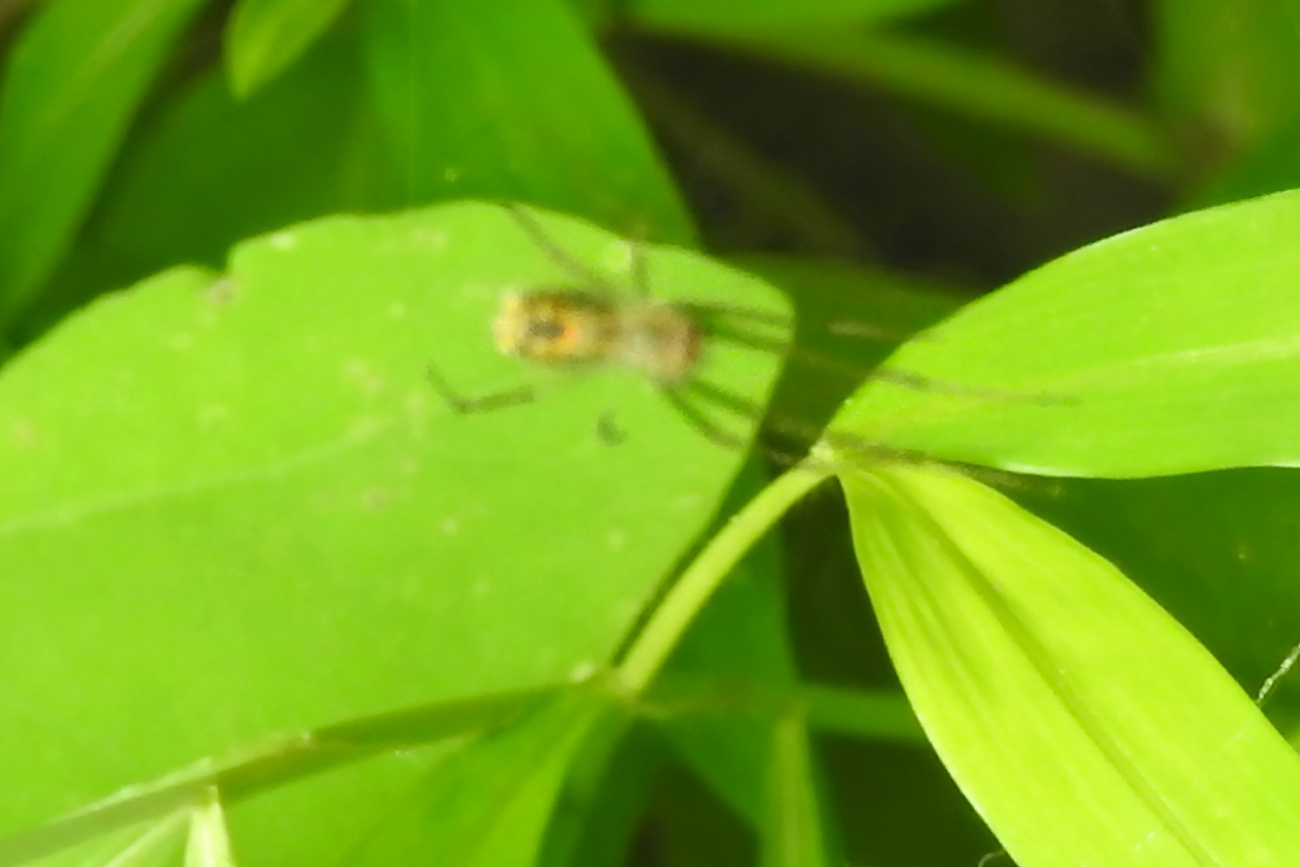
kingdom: Animalia
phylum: Arthropoda
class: Arachnida
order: Araneae
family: Tetragnathidae
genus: Leucauge
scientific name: Leucauge venusta
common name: Longjawed orb weavers
